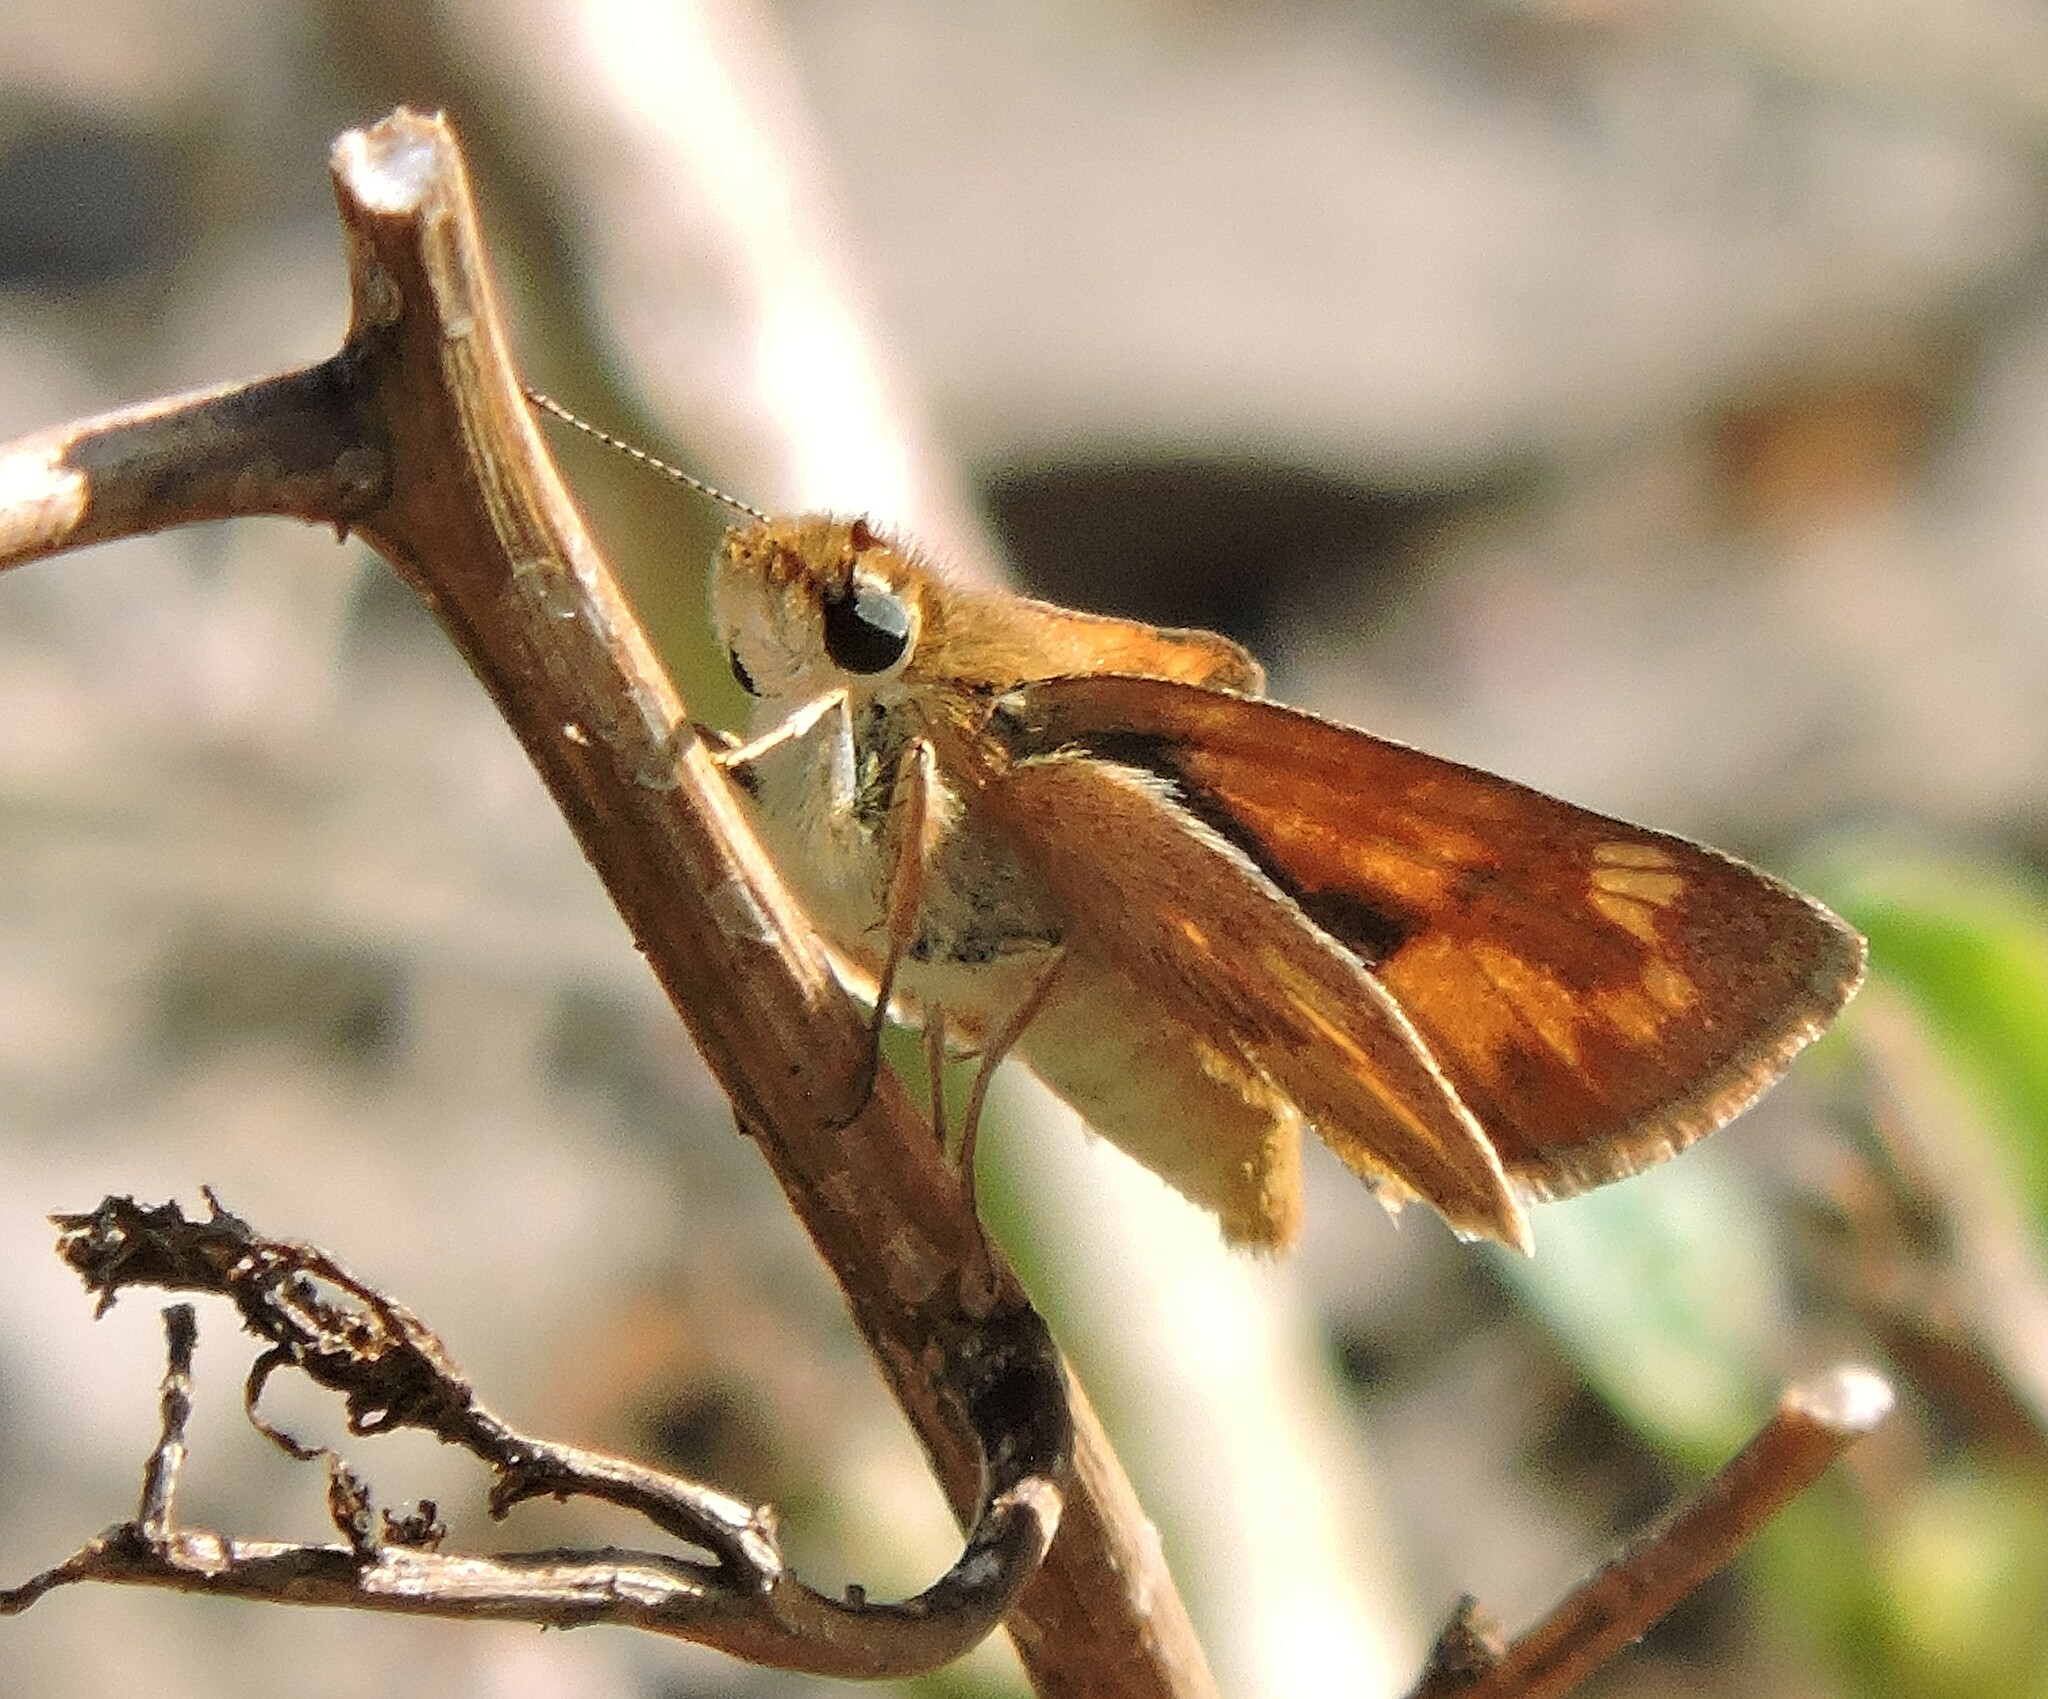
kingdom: Animalia
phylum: Arthropoda
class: Insecta
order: Lepidoptera
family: Hesperiidae
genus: Ochlodes
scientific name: Ochlodes sylvanoides
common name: Woodland skipper
